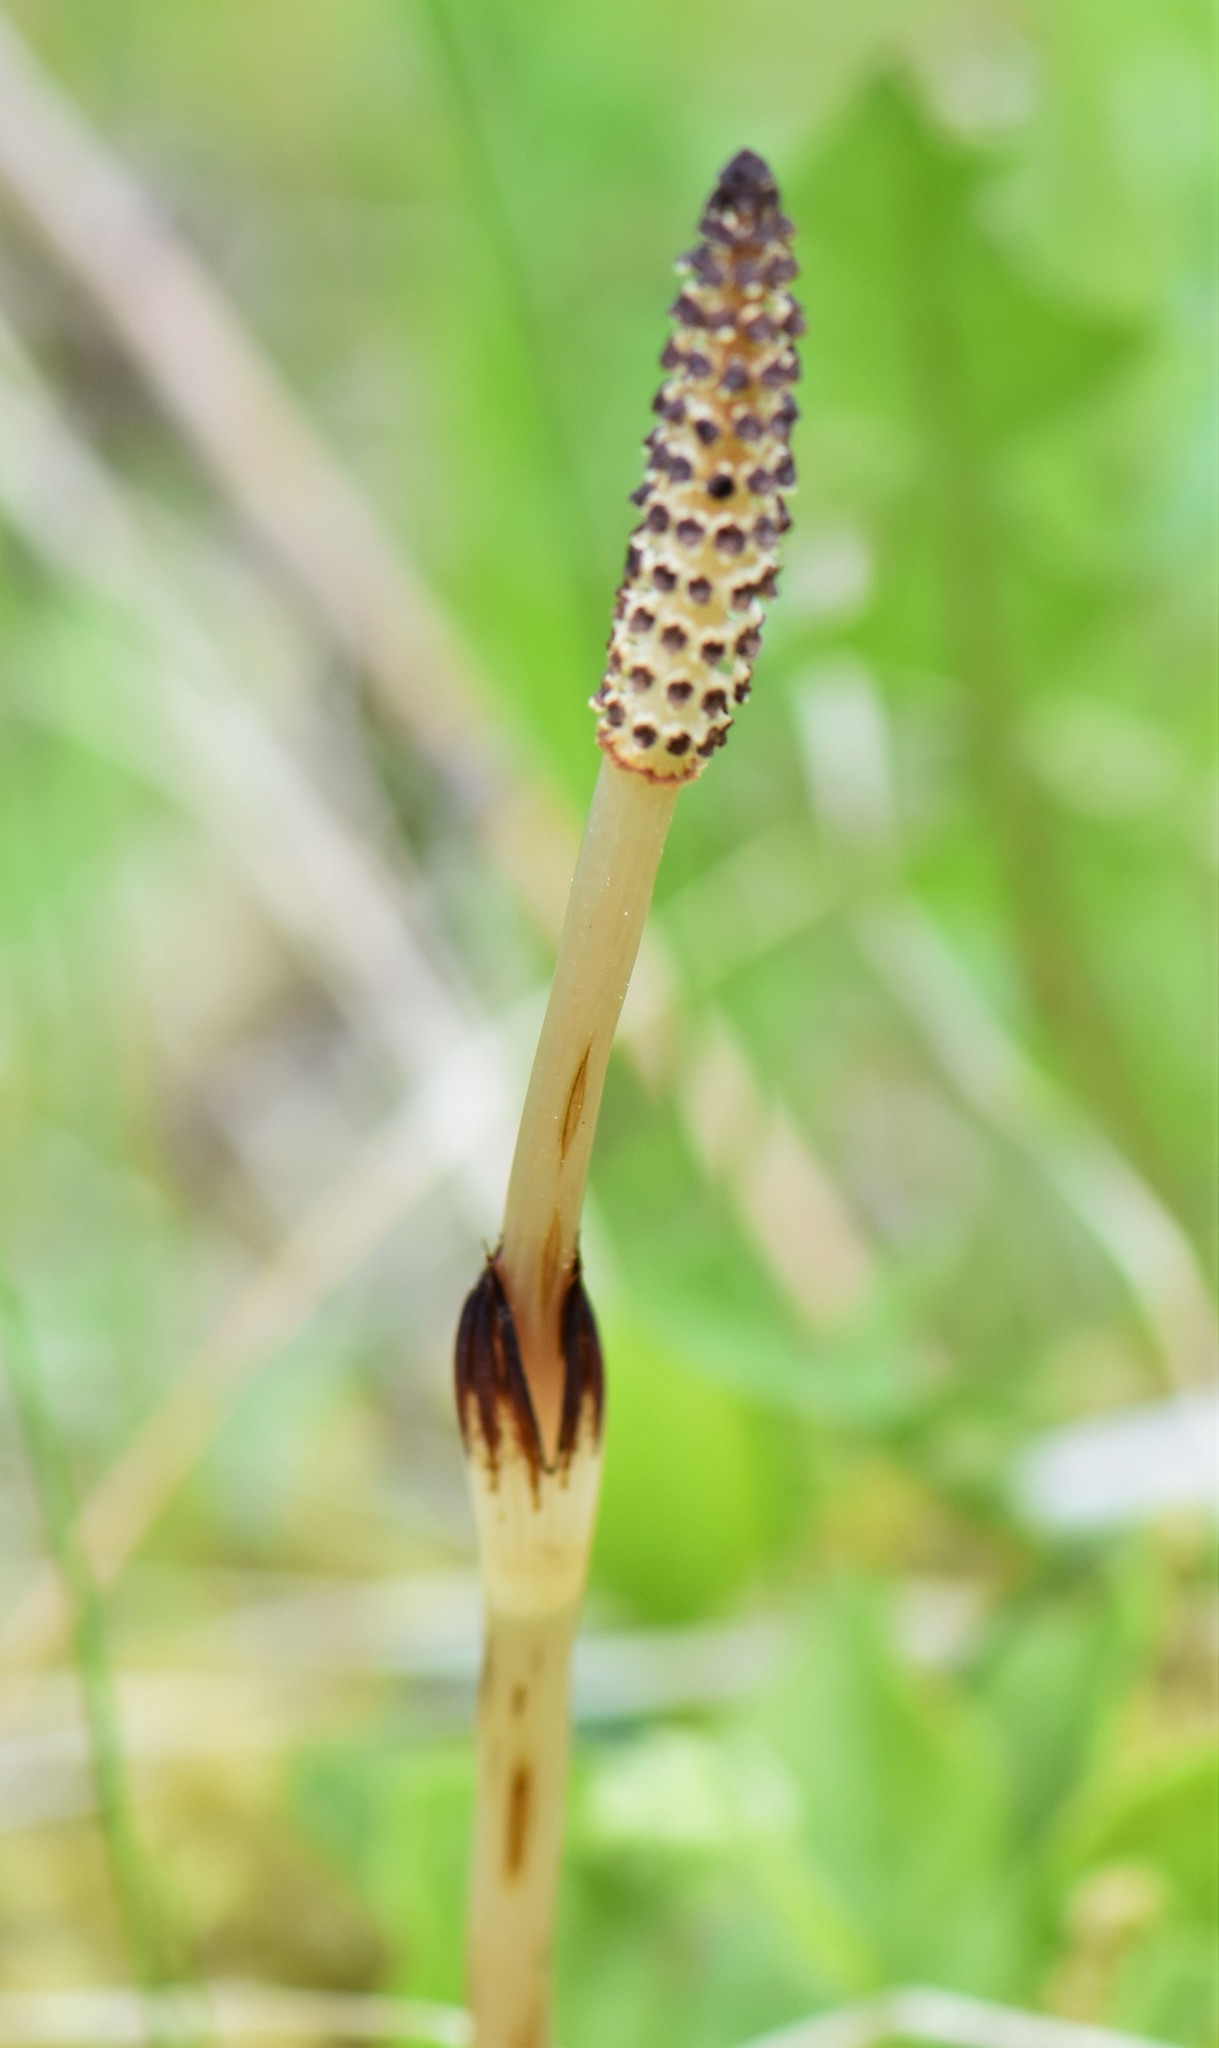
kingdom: Plantae
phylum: Tracheophyta
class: Polypodiopsida
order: Equisetales
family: Equisetaceae
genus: Equisetum
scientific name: Equisetum arvense
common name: Field horsetail
